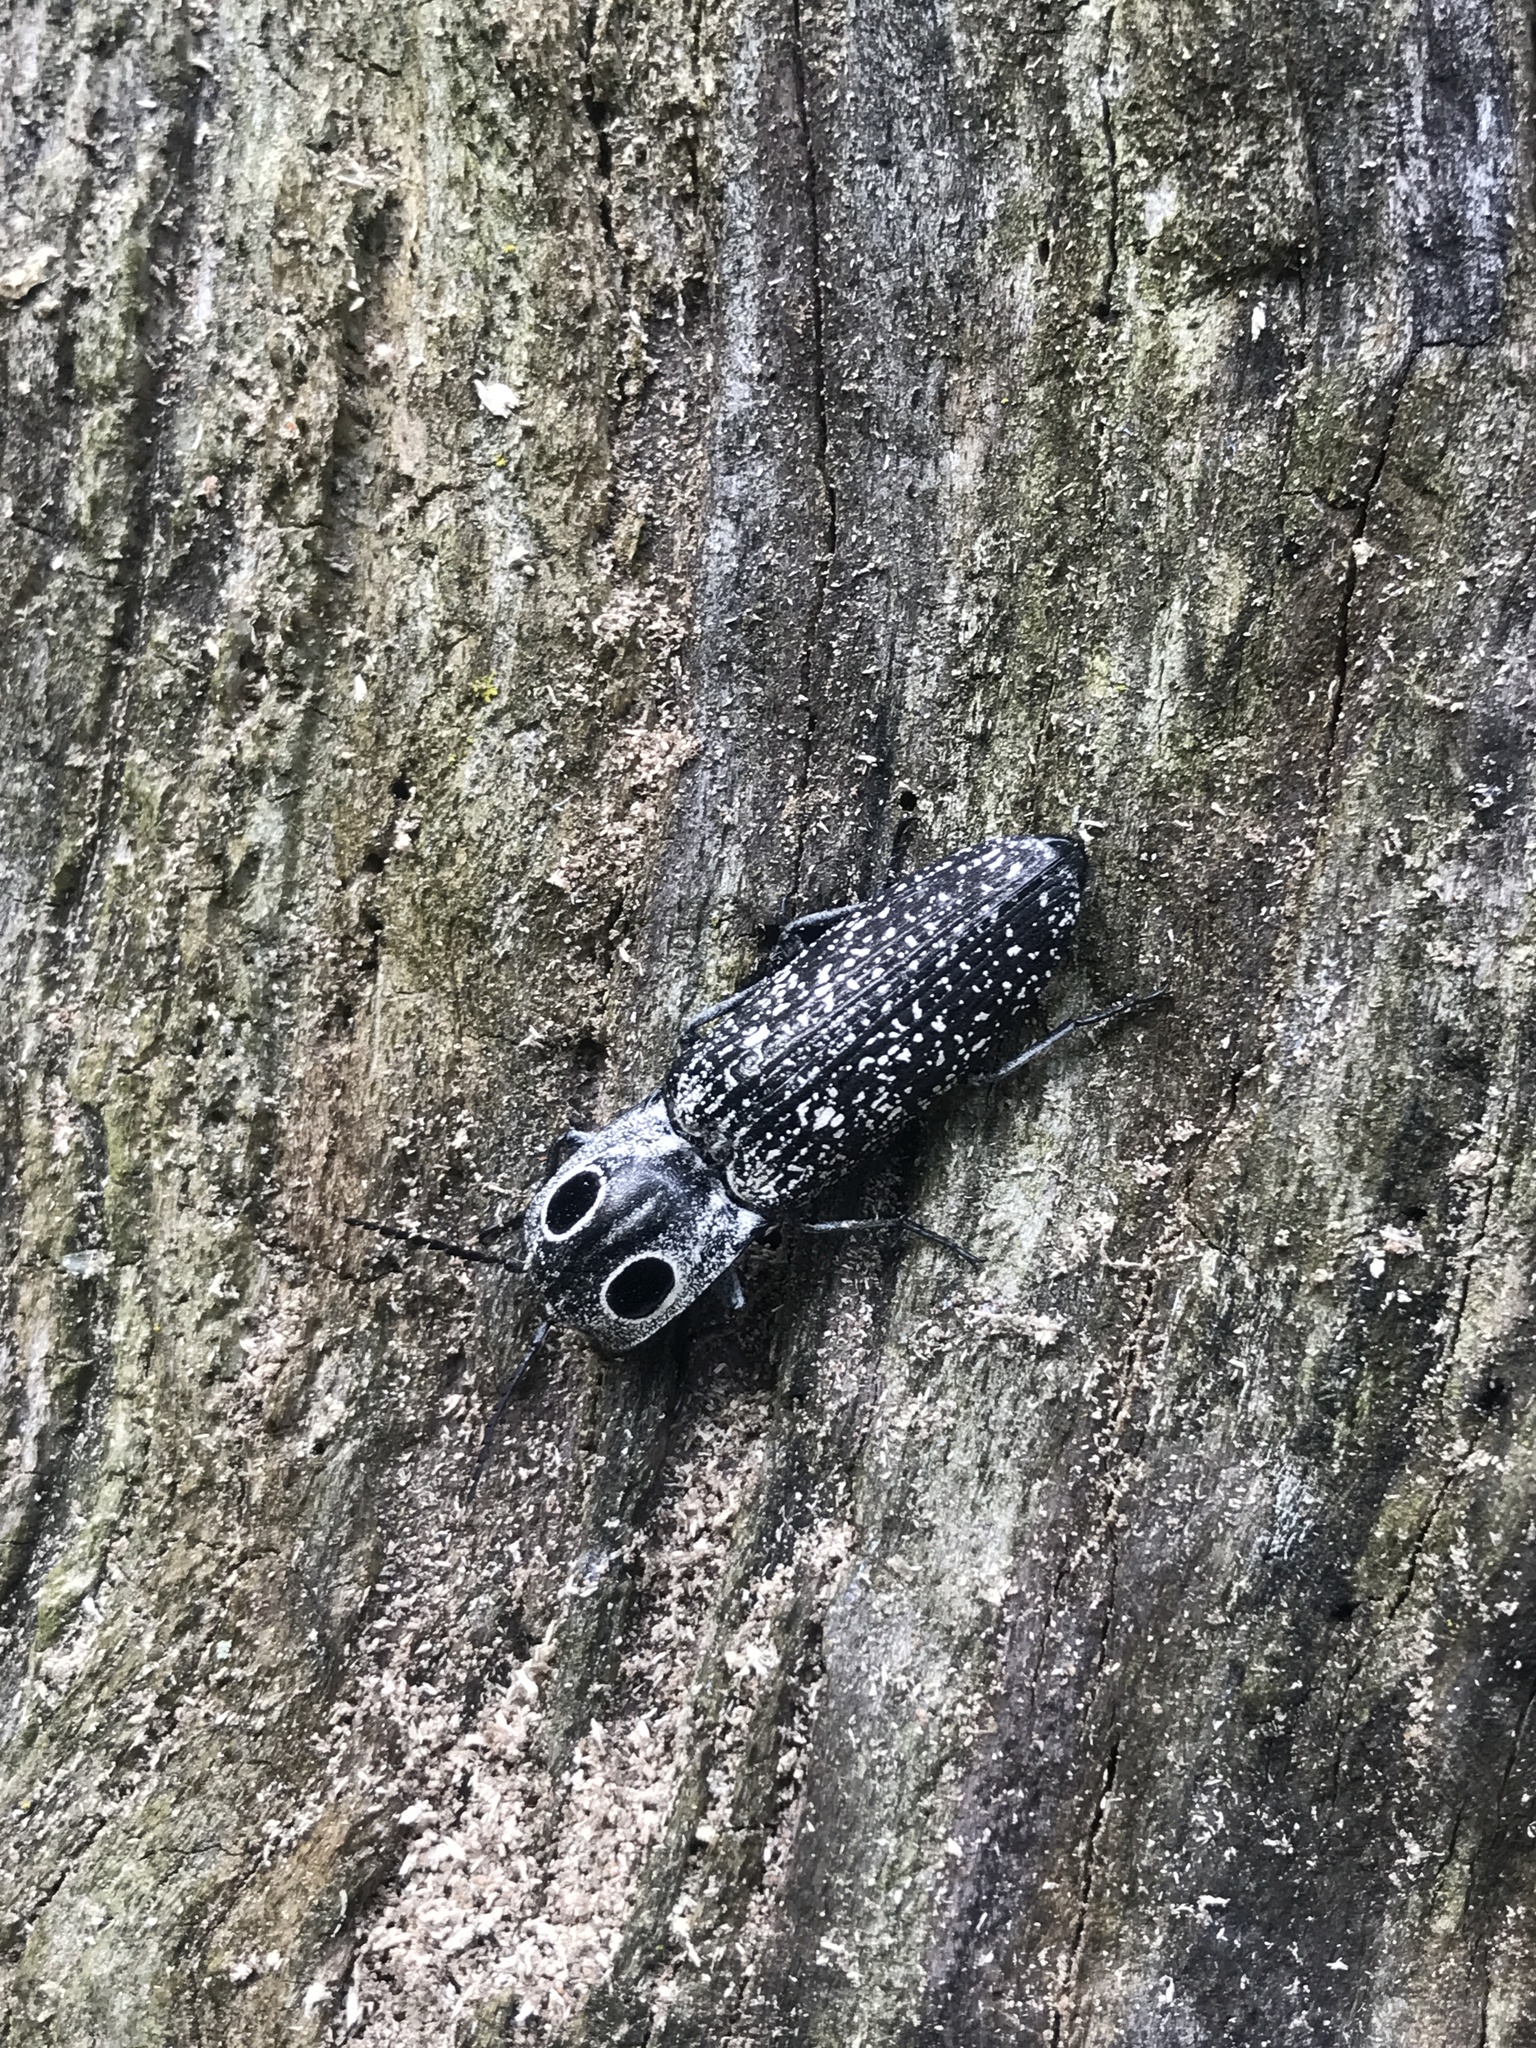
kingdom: Animalia
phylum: Arthropoda
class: Insecta
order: Coleoptera
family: Elateridae
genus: Alaus
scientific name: Alaus oculatus
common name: Eastern eyed click beetle
